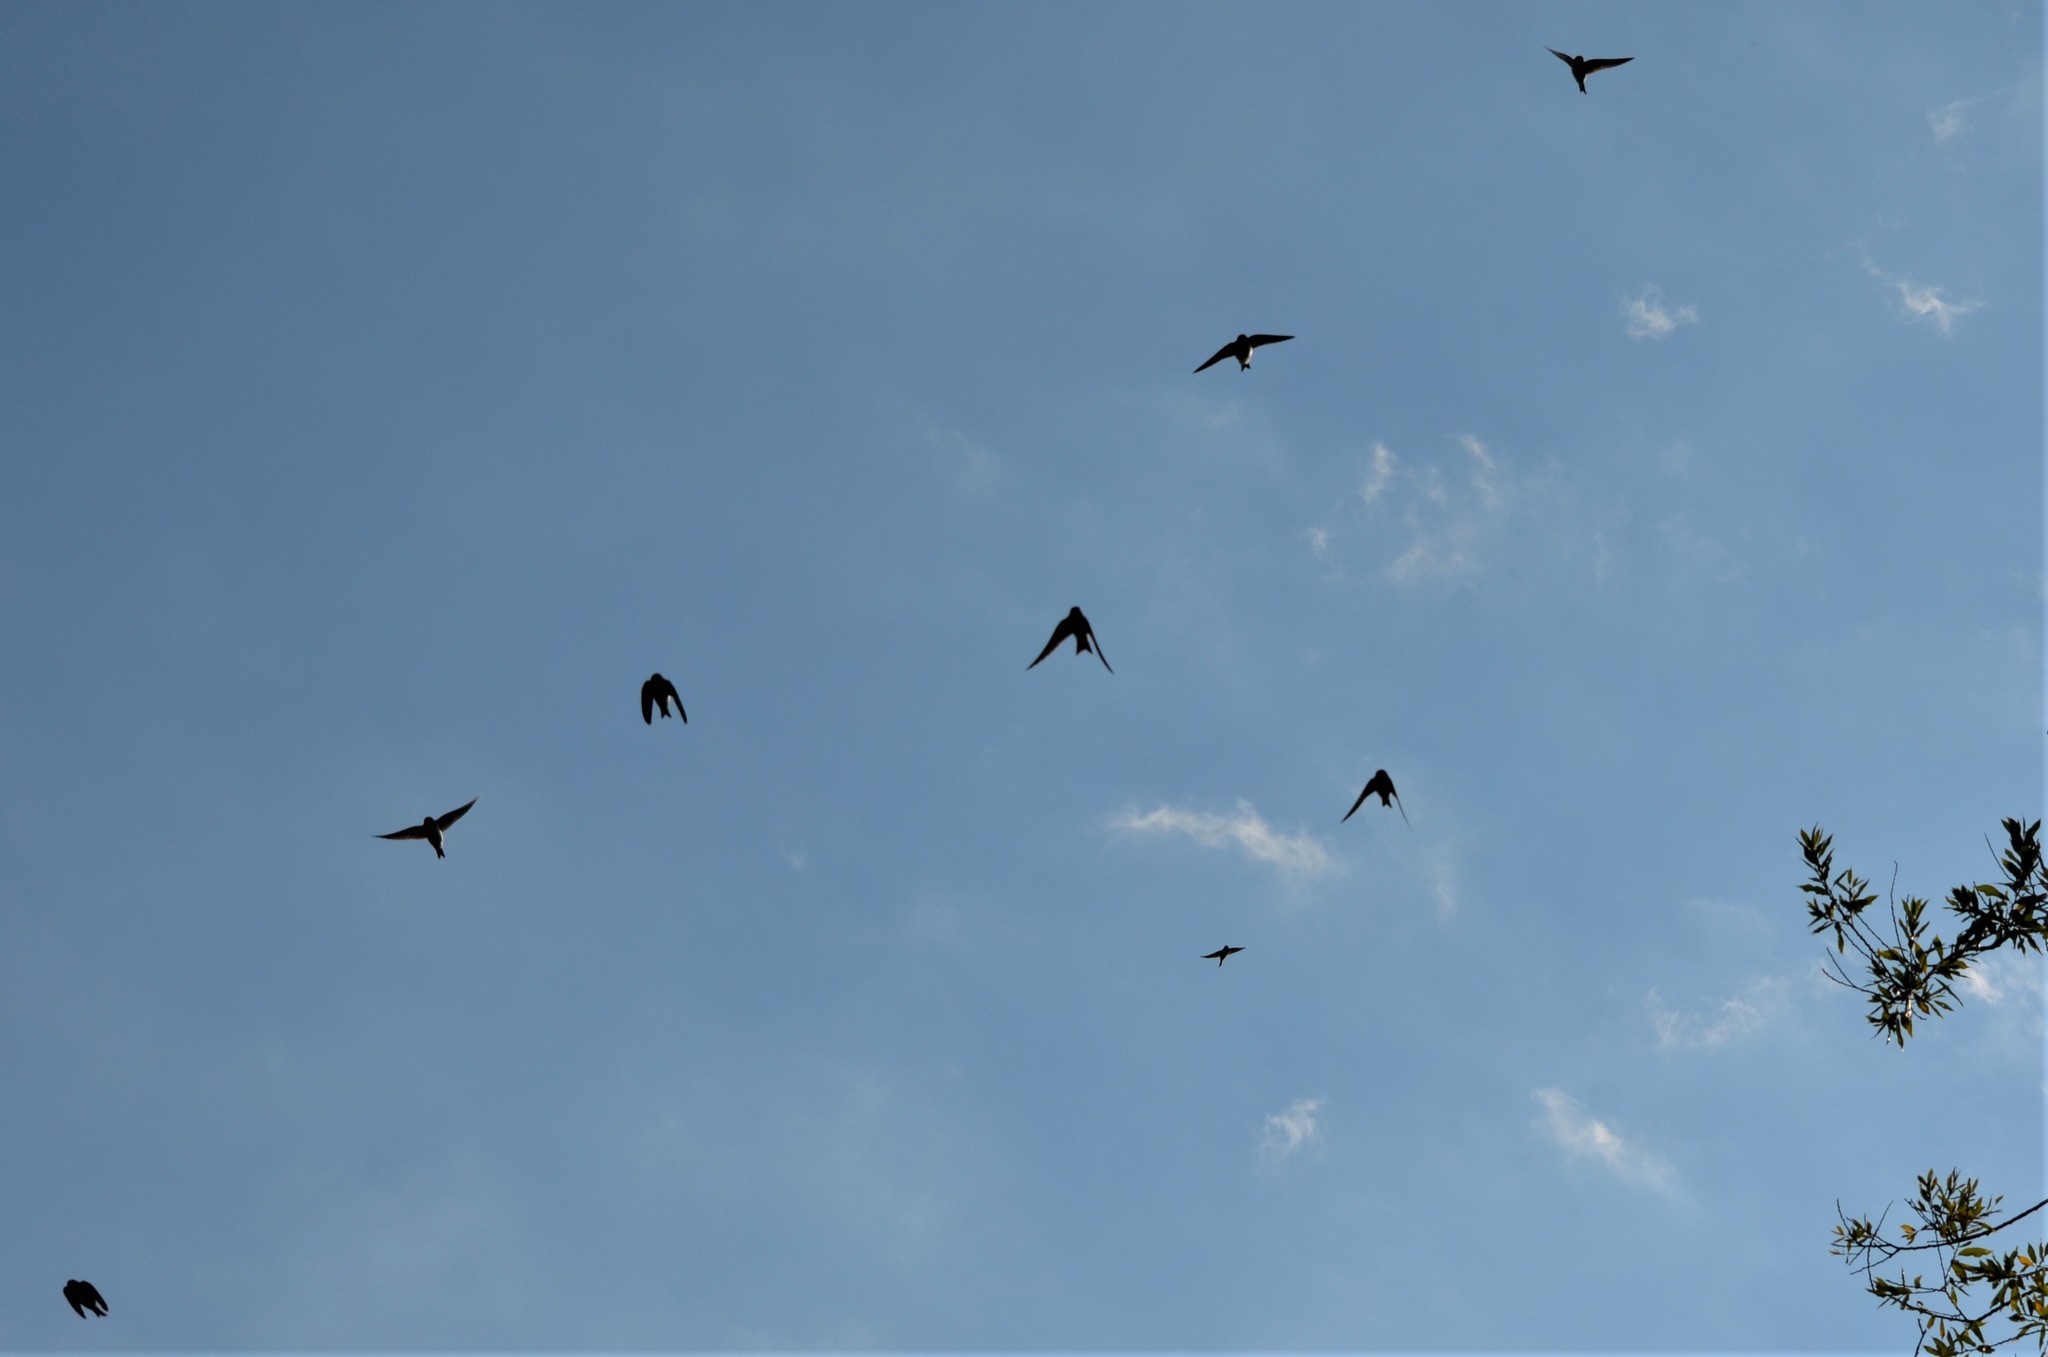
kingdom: Animalia
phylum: Chordata
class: Aves
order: Passeriformes
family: Hirundinidae
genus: Delichon
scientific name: Delichon urbicum
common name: Common house martin
